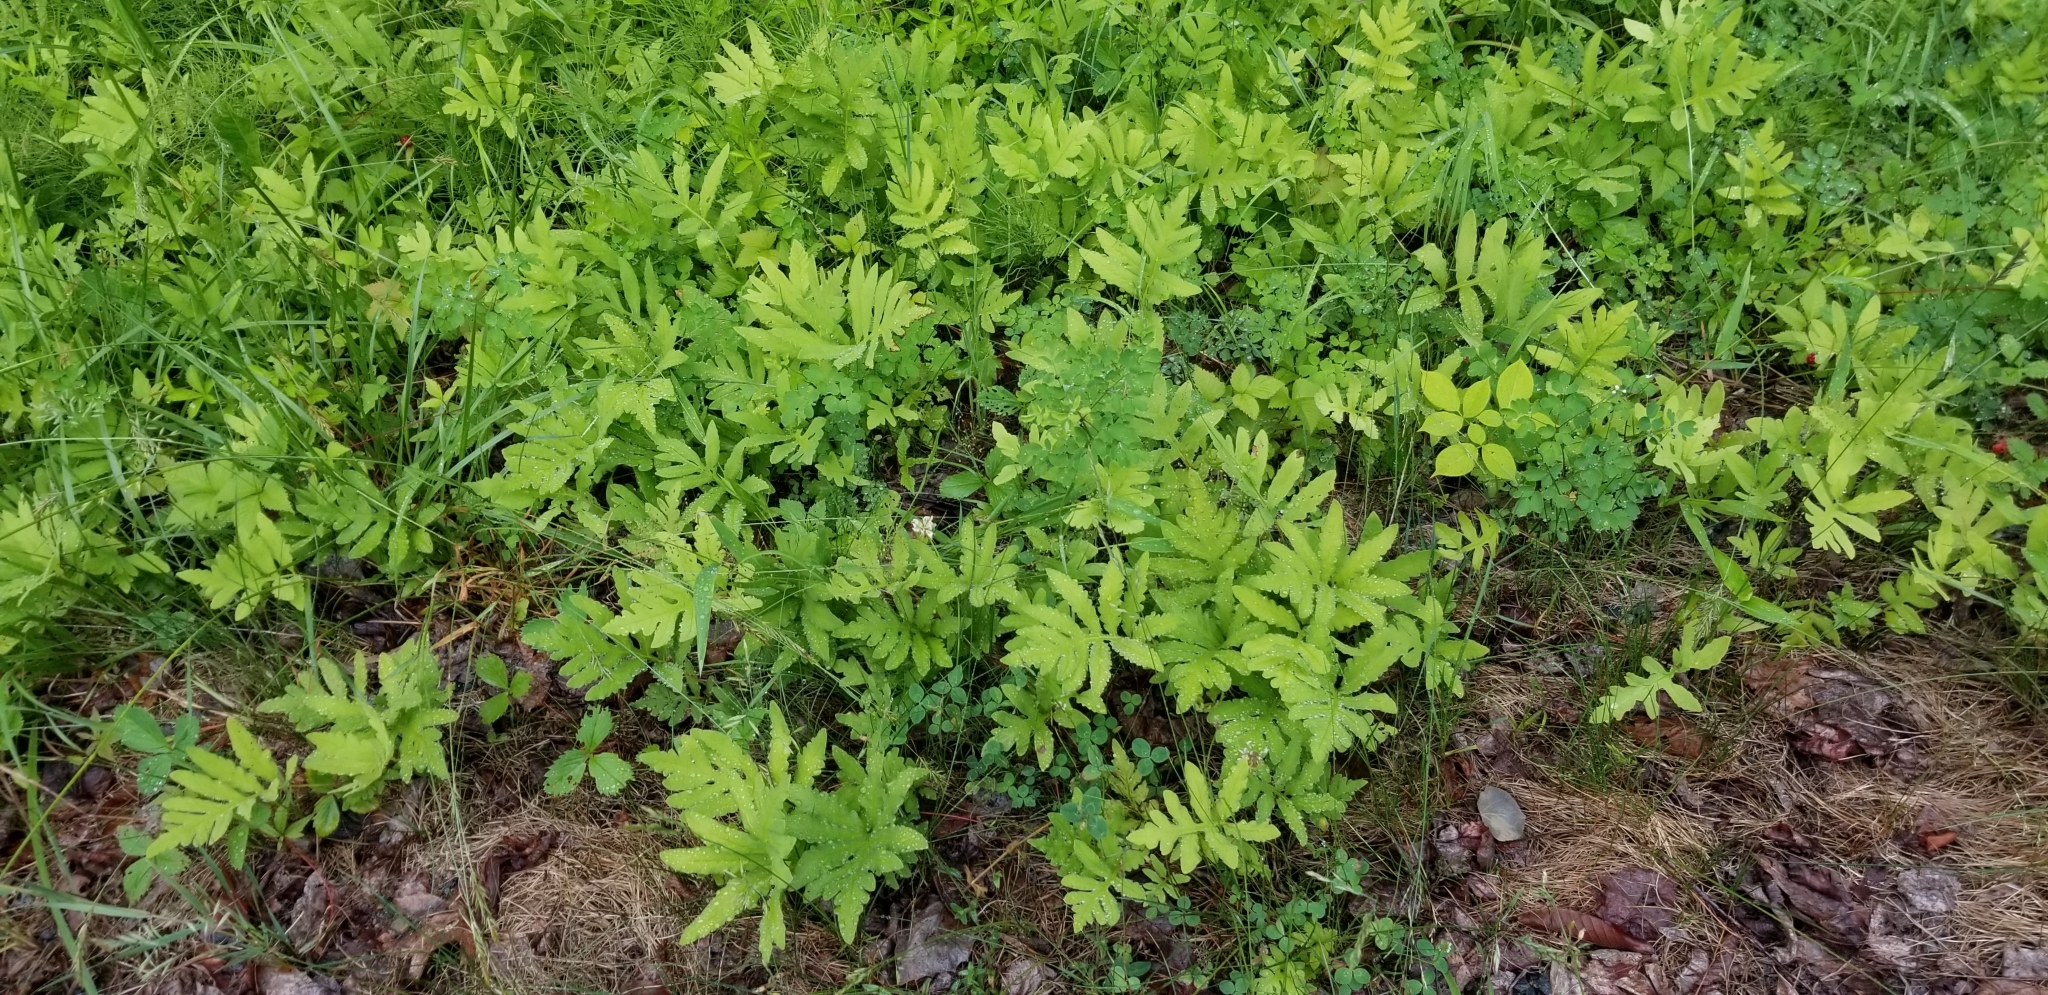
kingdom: Plantae
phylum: Tracheophyta
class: Polypodiopsida
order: Polypodiales
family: Onocleaceae
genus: Onoclea
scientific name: Onoclea sensibilis
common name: Sensitive fern
